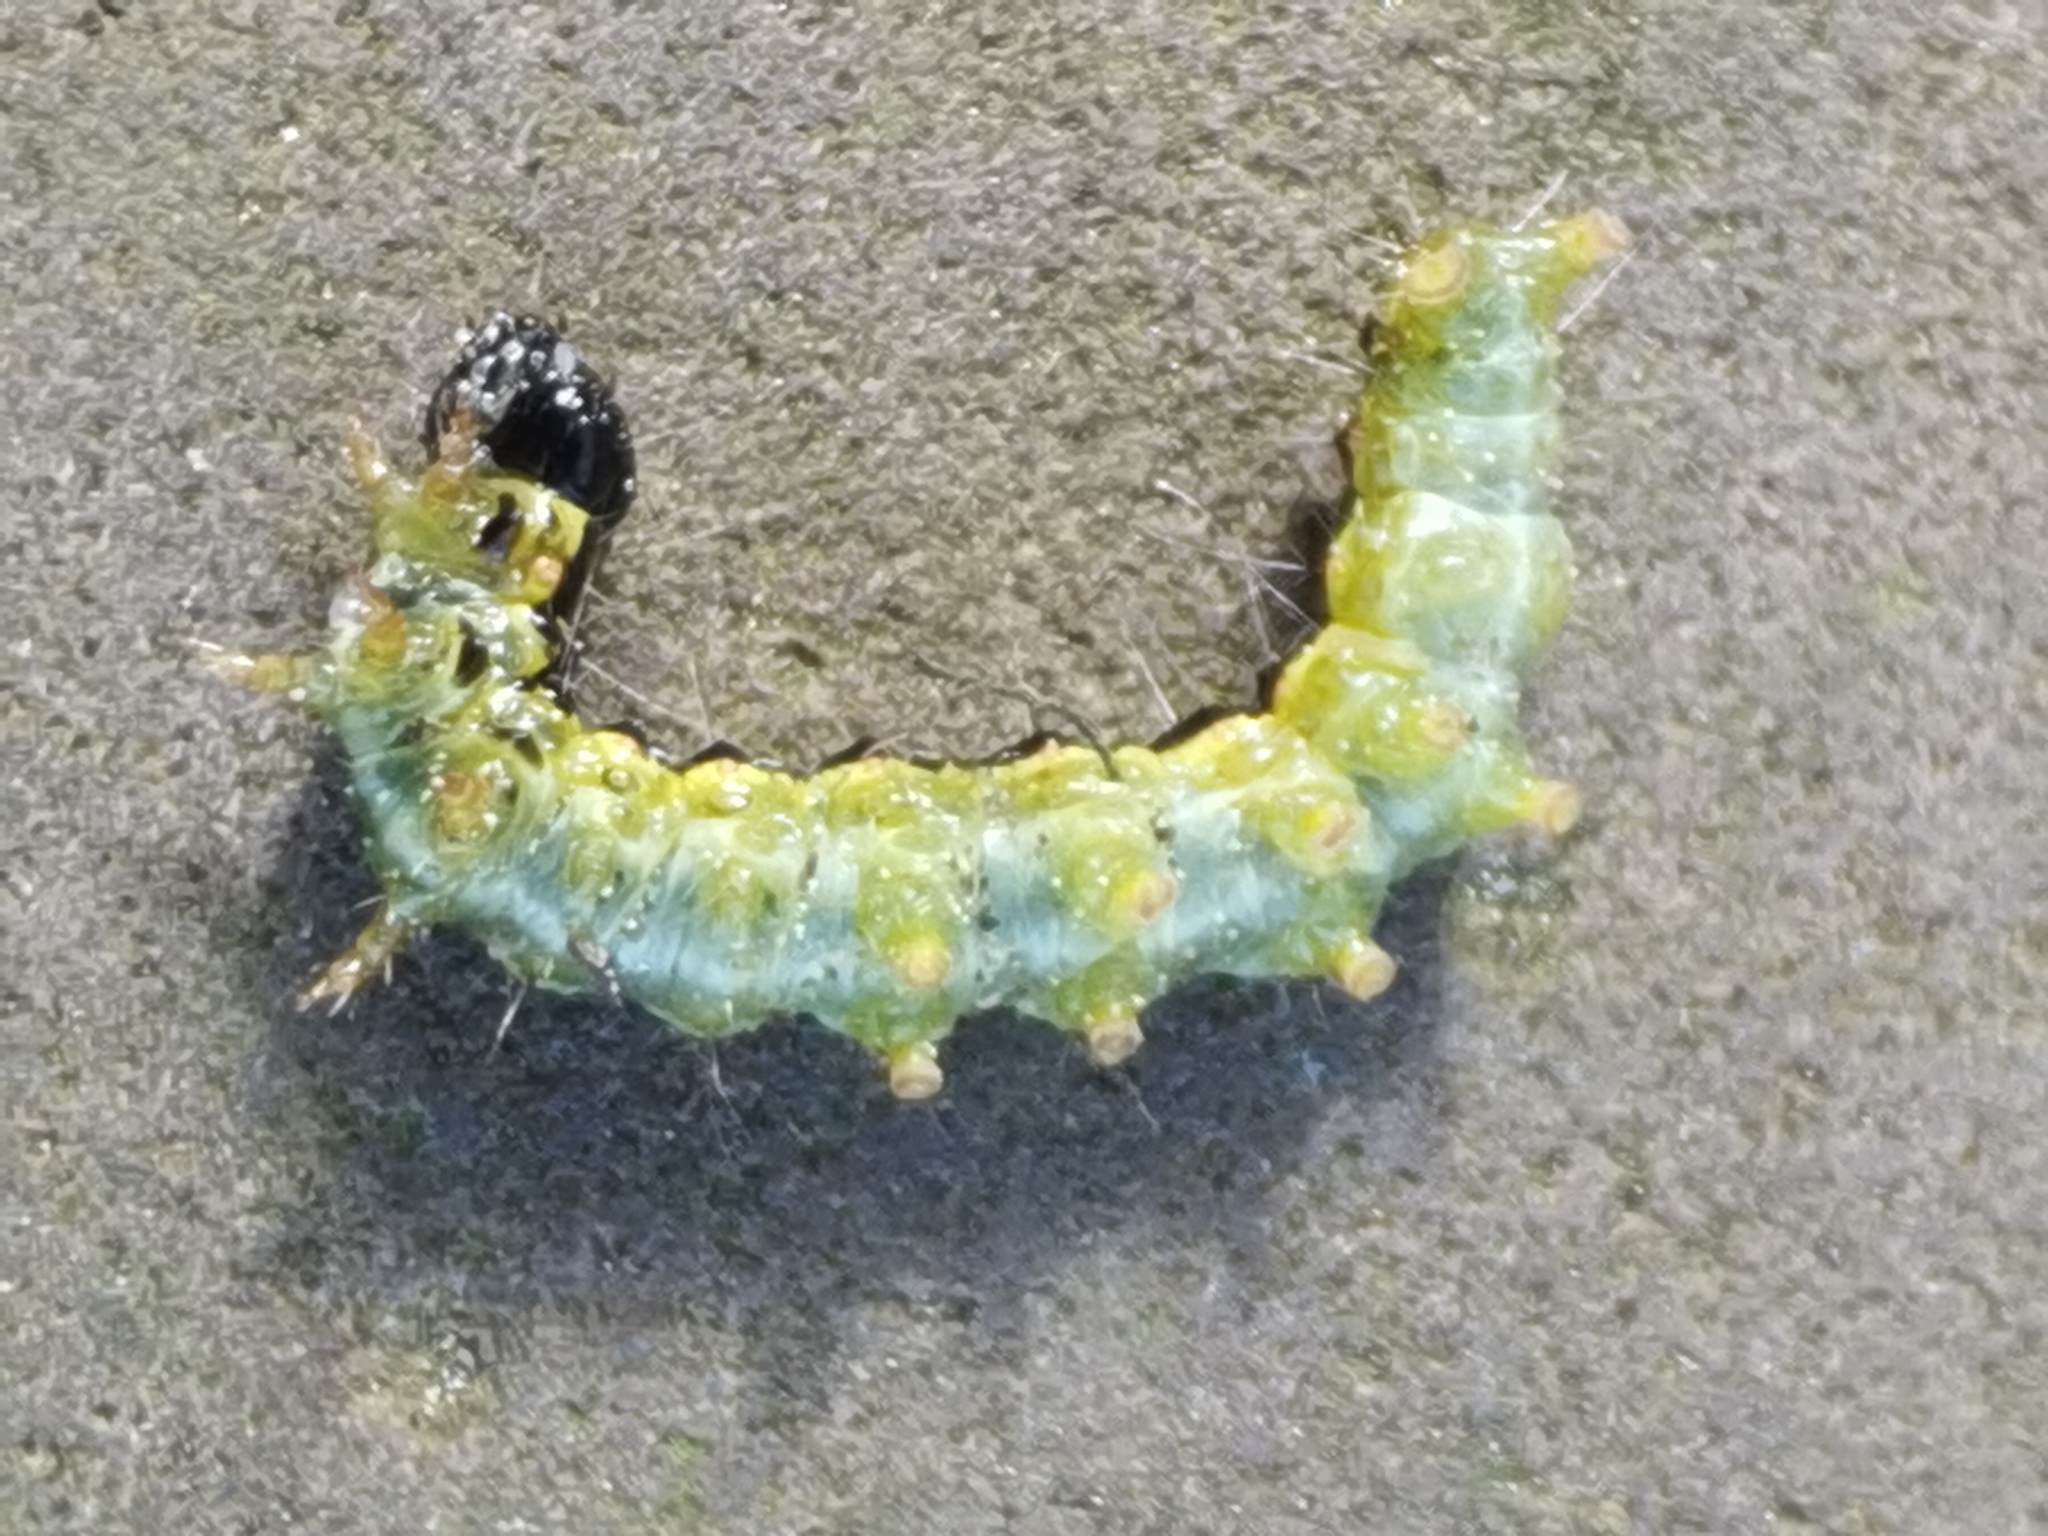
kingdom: Animalia
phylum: Arthropoda
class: Insecta
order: Lepidoptera
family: Crambidae
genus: Cydalima
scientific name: Cydalima perspectalis
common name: Box tree moth
